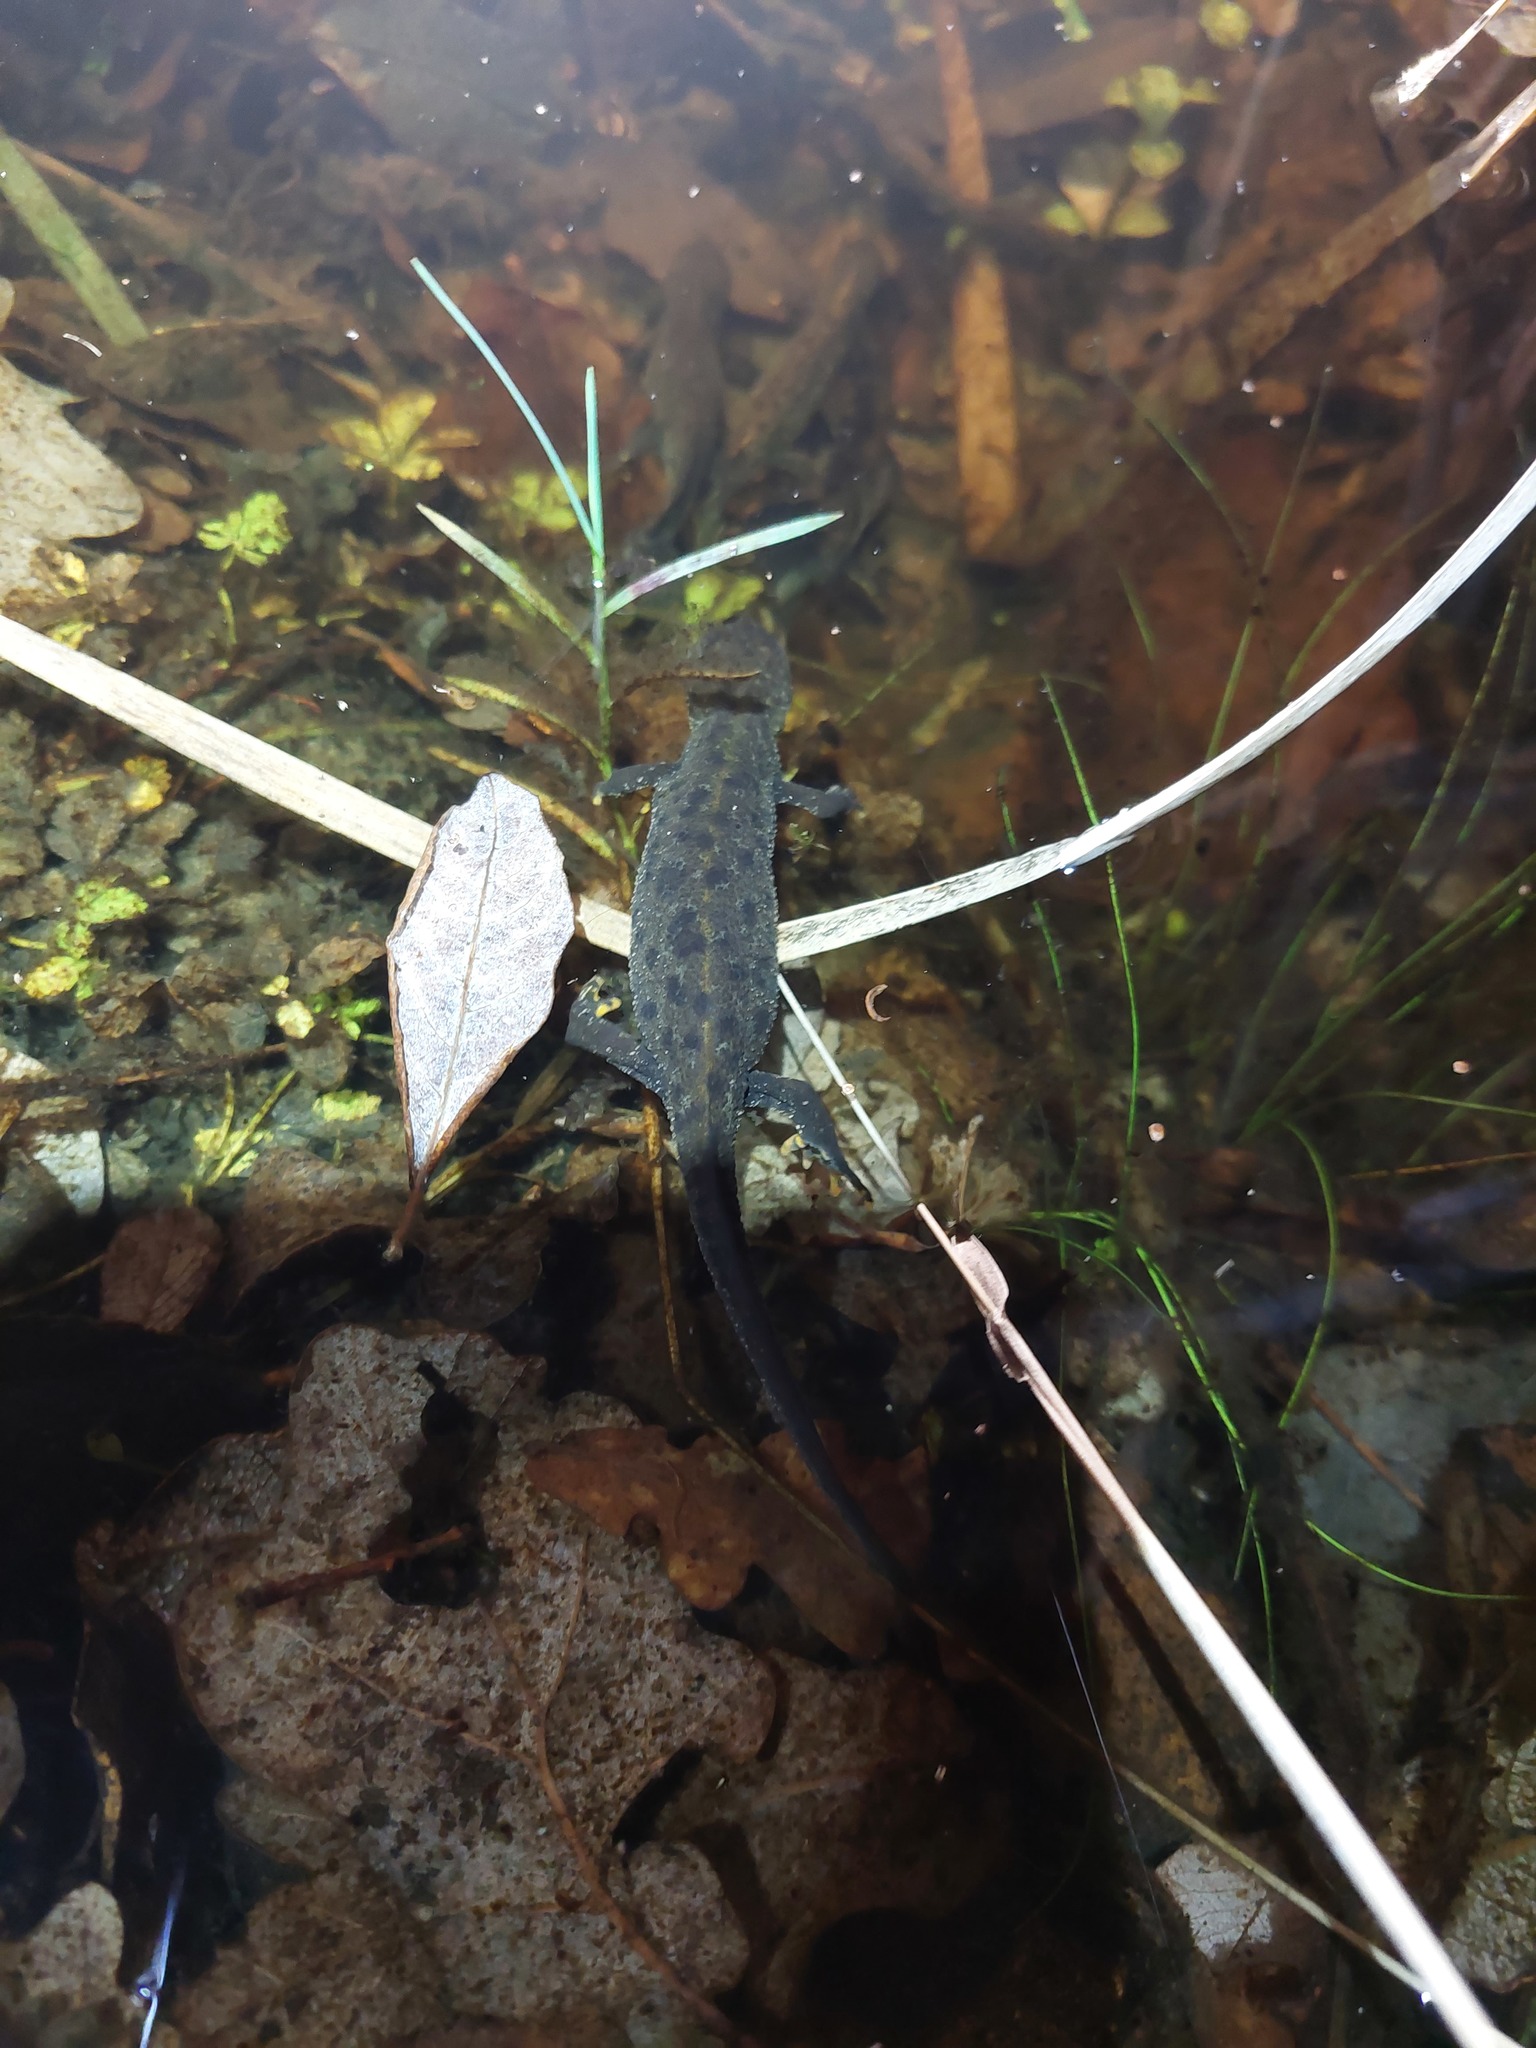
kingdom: Animalia
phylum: Chordata
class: Amphibia
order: Caudata
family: Salamandridae
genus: Triturus
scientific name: Triturus cristatus
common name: Crested newt
